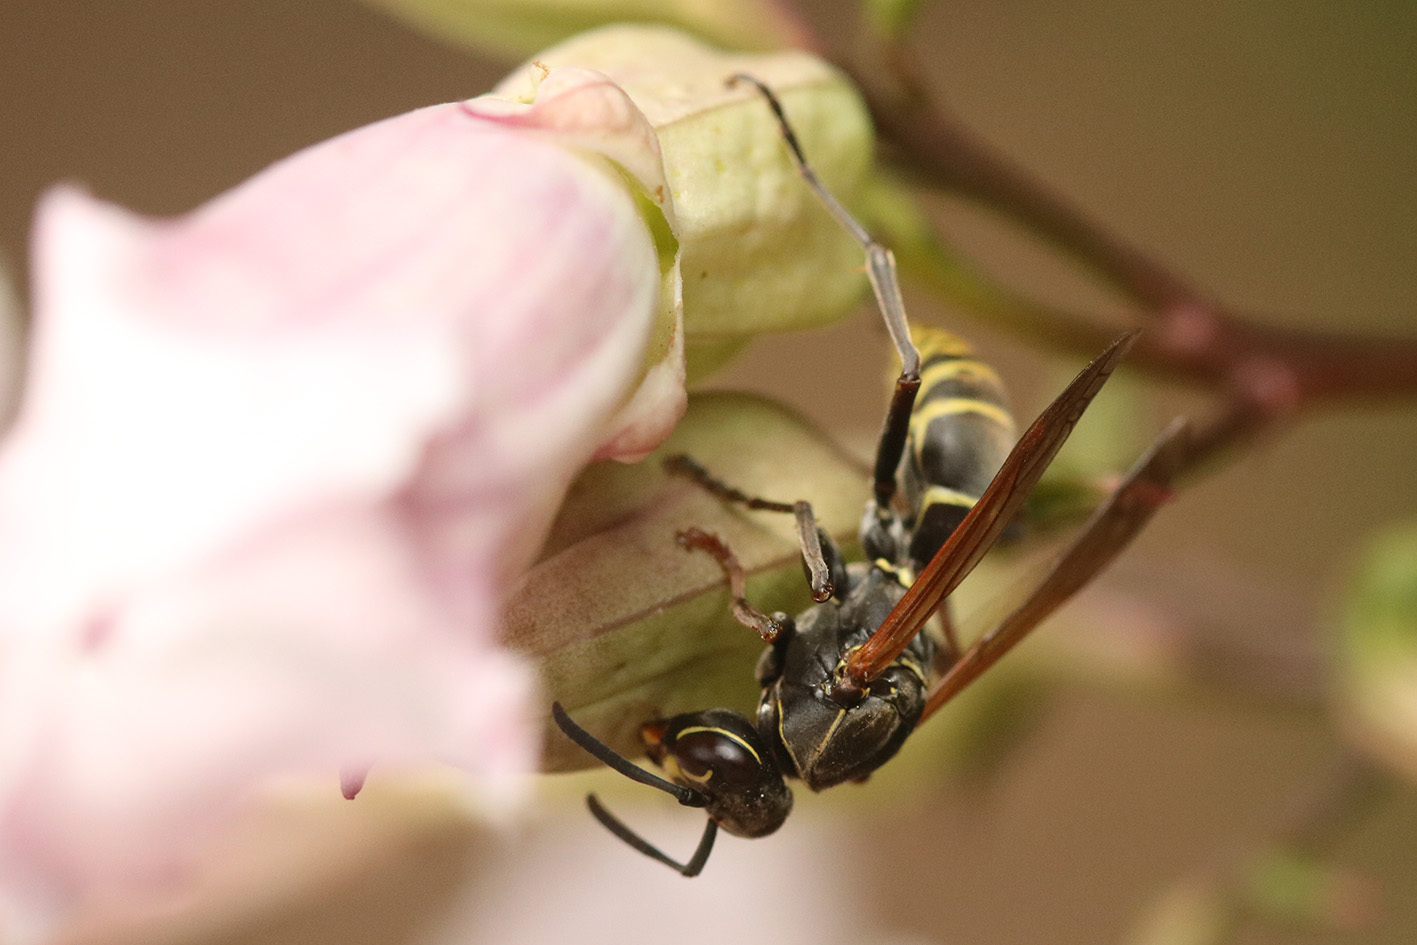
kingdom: Animalia
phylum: Arthropoda
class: Insecta
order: Hymenoptera
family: Eumenidae
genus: Polistes
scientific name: Polistes cinerascens
